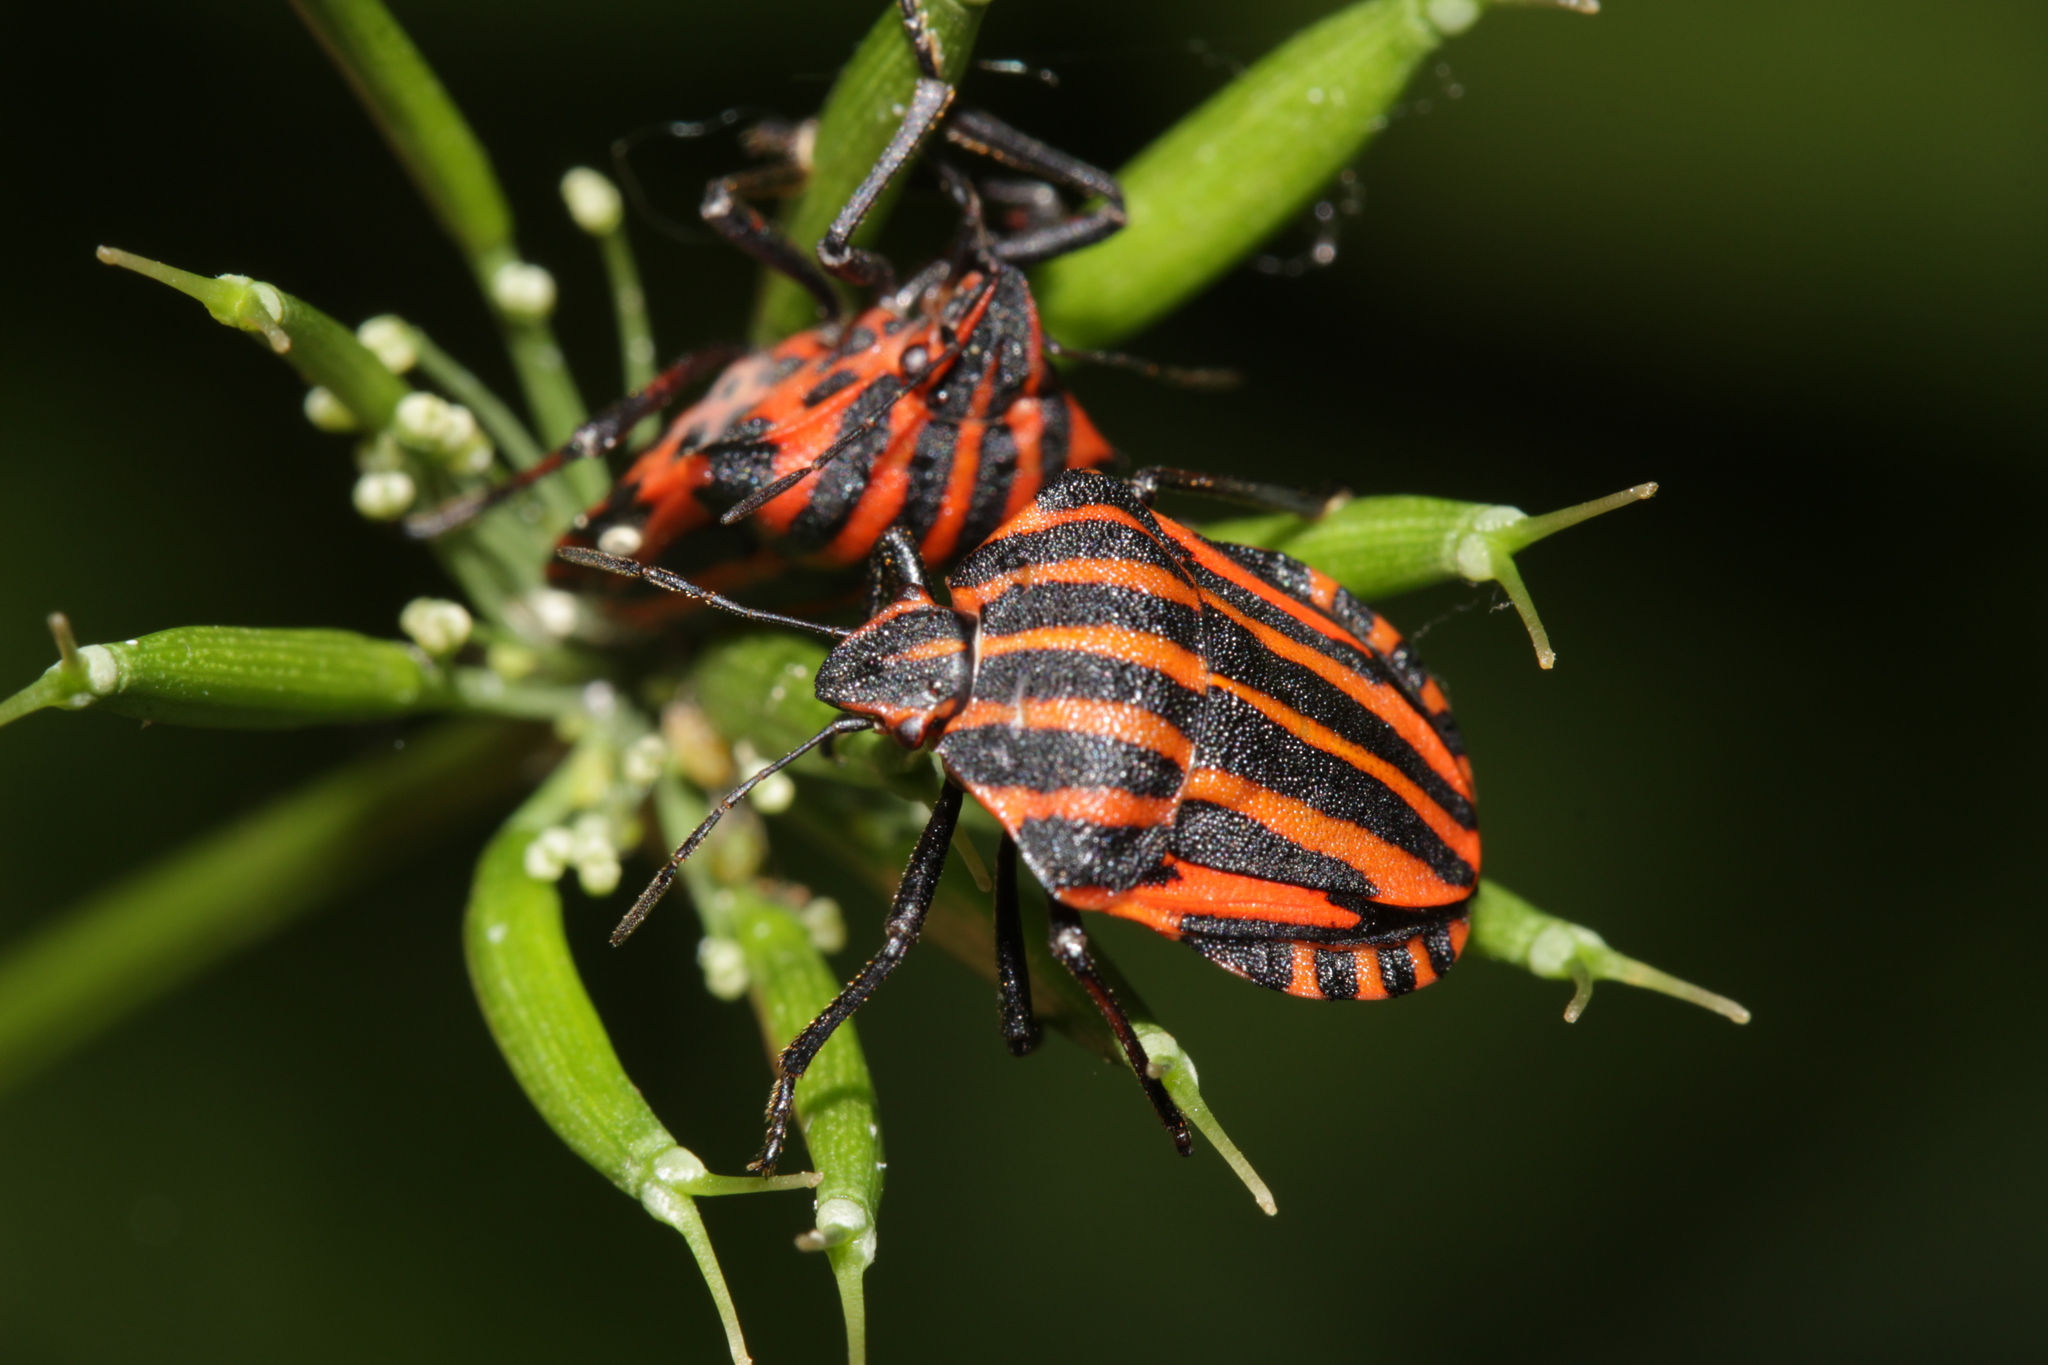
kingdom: Animalia
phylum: Arthropoda
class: Insecta
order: Hemiptera
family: Pentatomidae
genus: Graphosoma
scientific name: Graphosoma italicum
